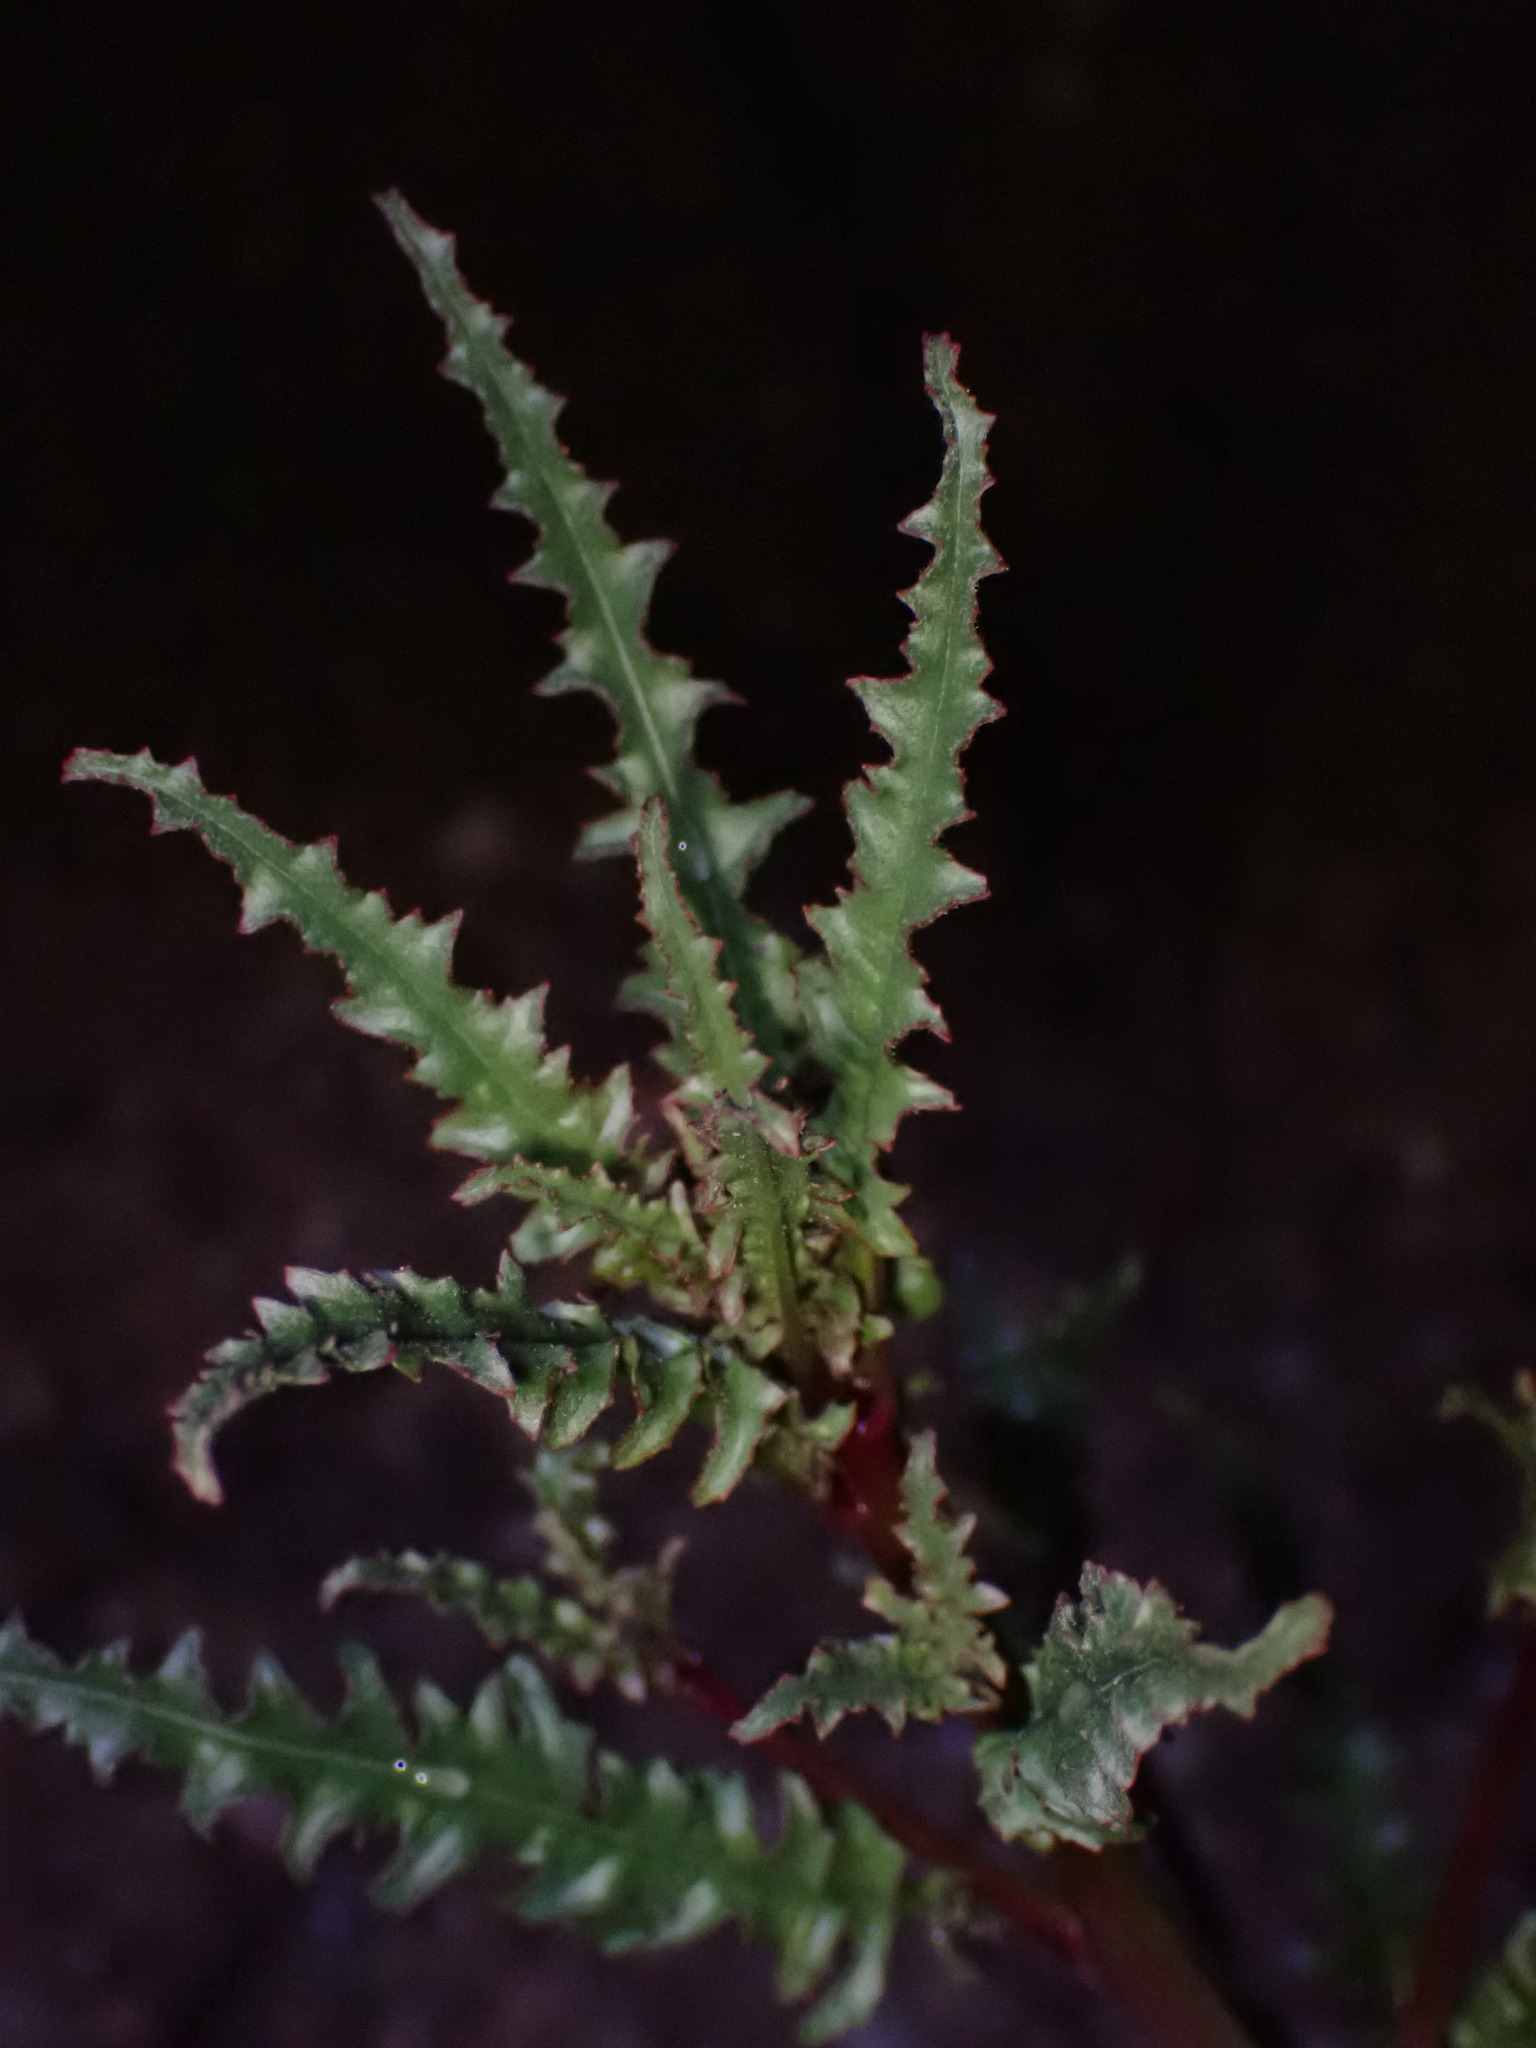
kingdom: Plantae
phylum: Tracheophyta
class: Magnoliopsida
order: Myrtales
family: Onagraceae
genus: Eulobus
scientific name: Eulobus californicus
